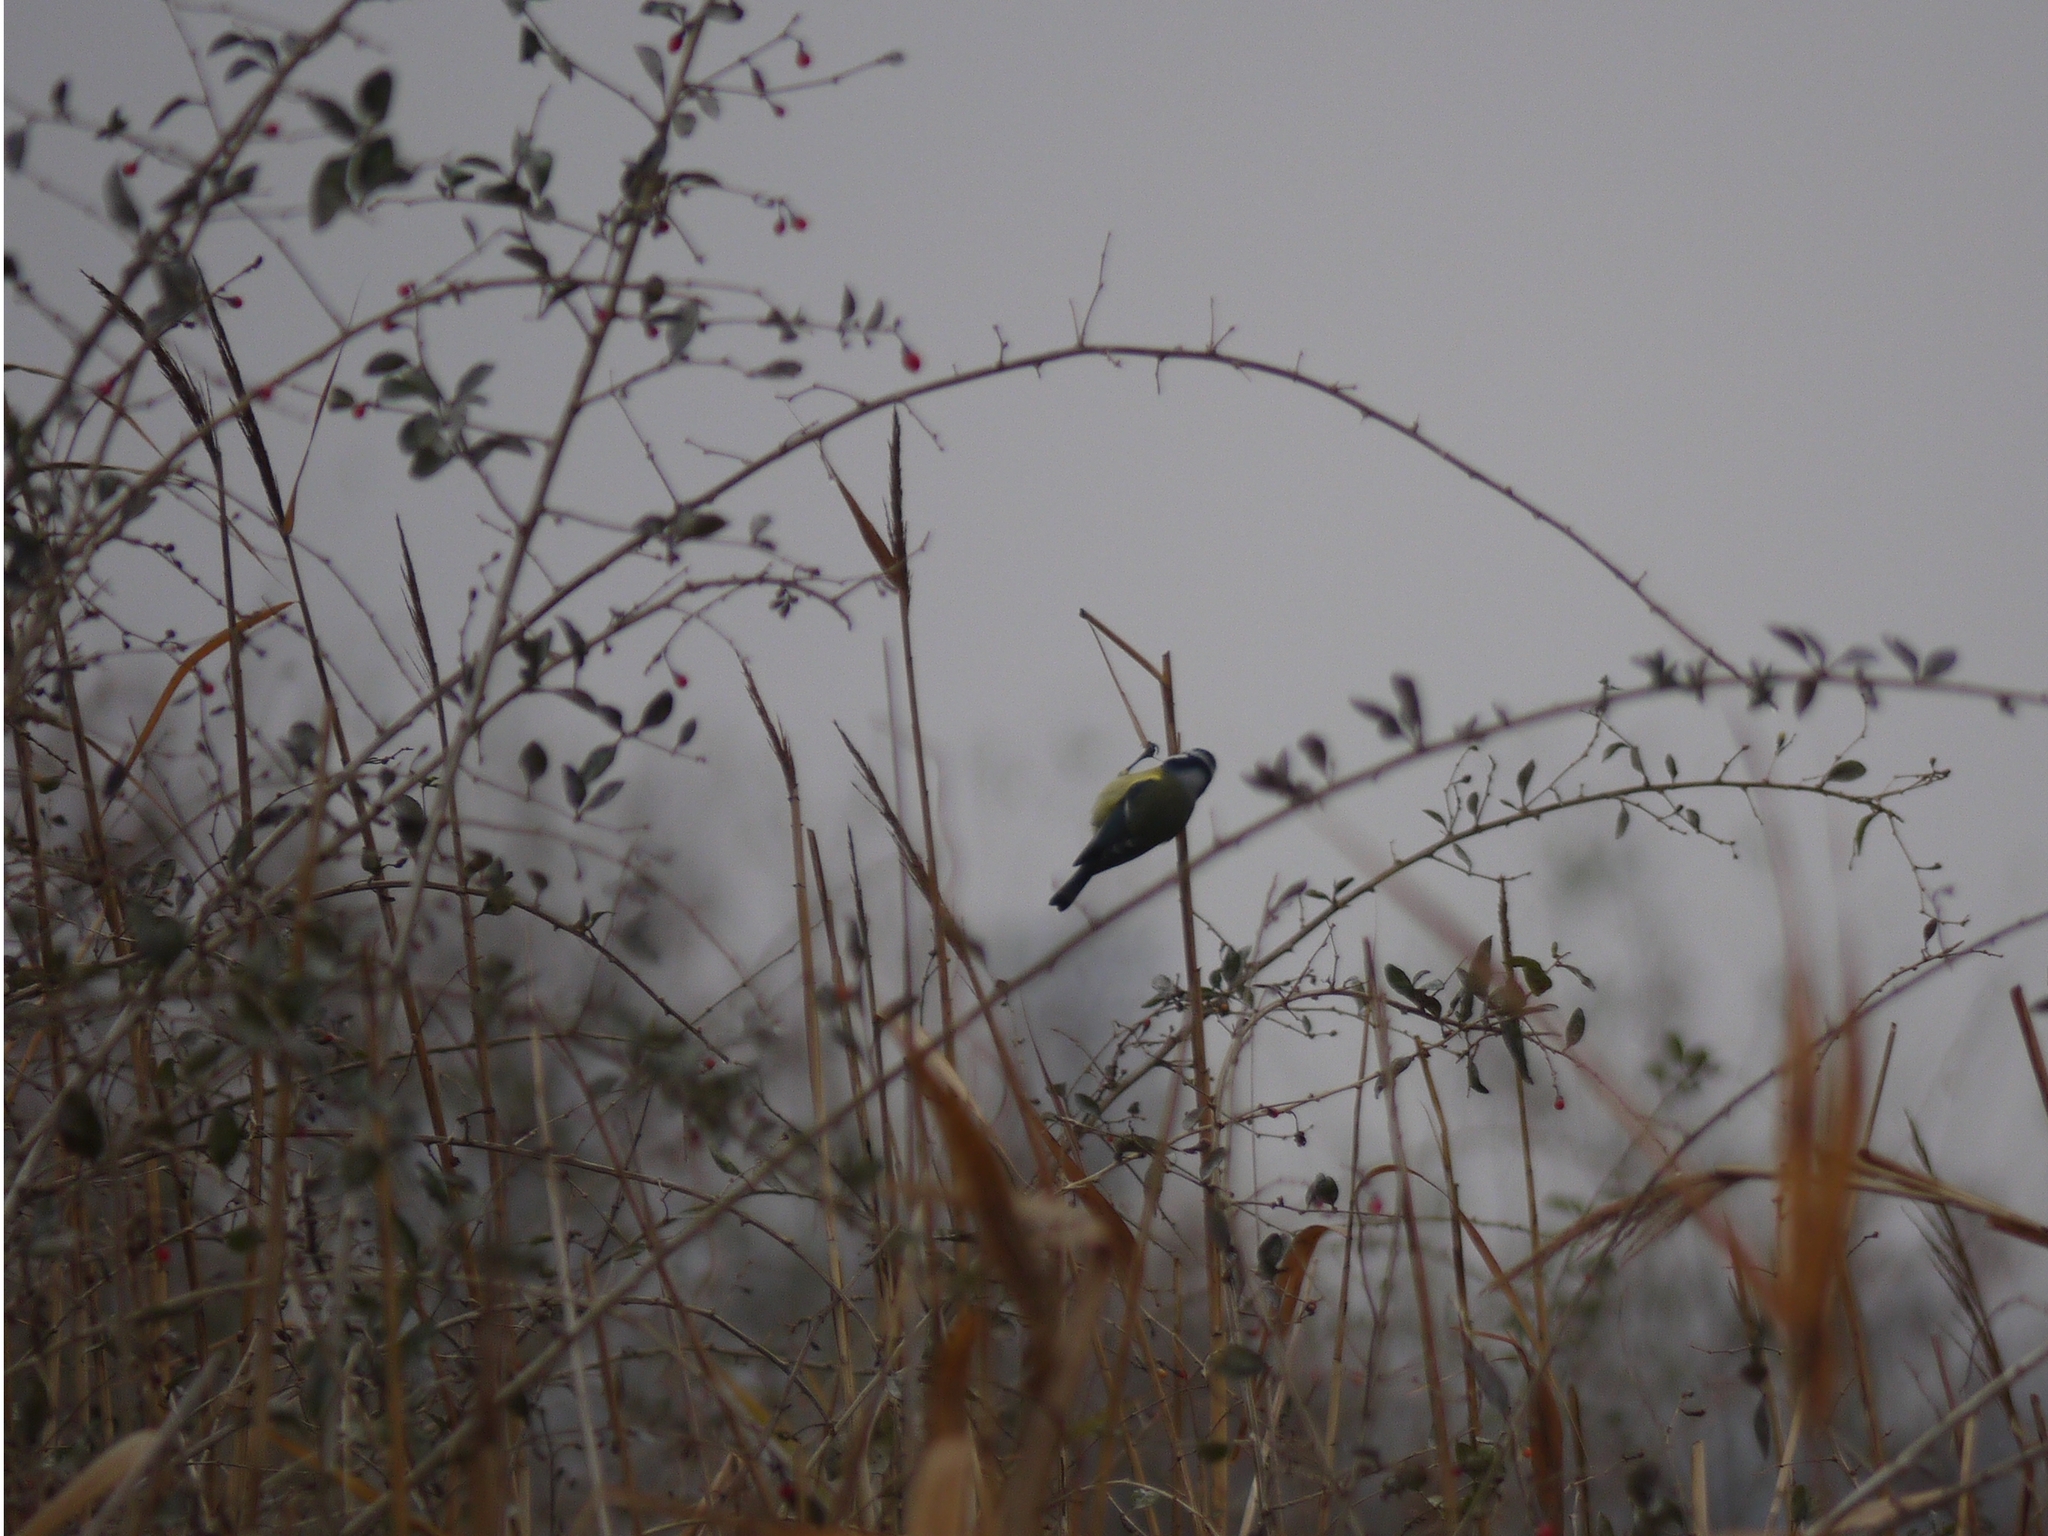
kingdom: Animalia
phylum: Chordata
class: Aves
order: Passeriformes
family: Paridae
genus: Cyanistes
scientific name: Cyanistes caeruleus
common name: Eurasian blue tit
